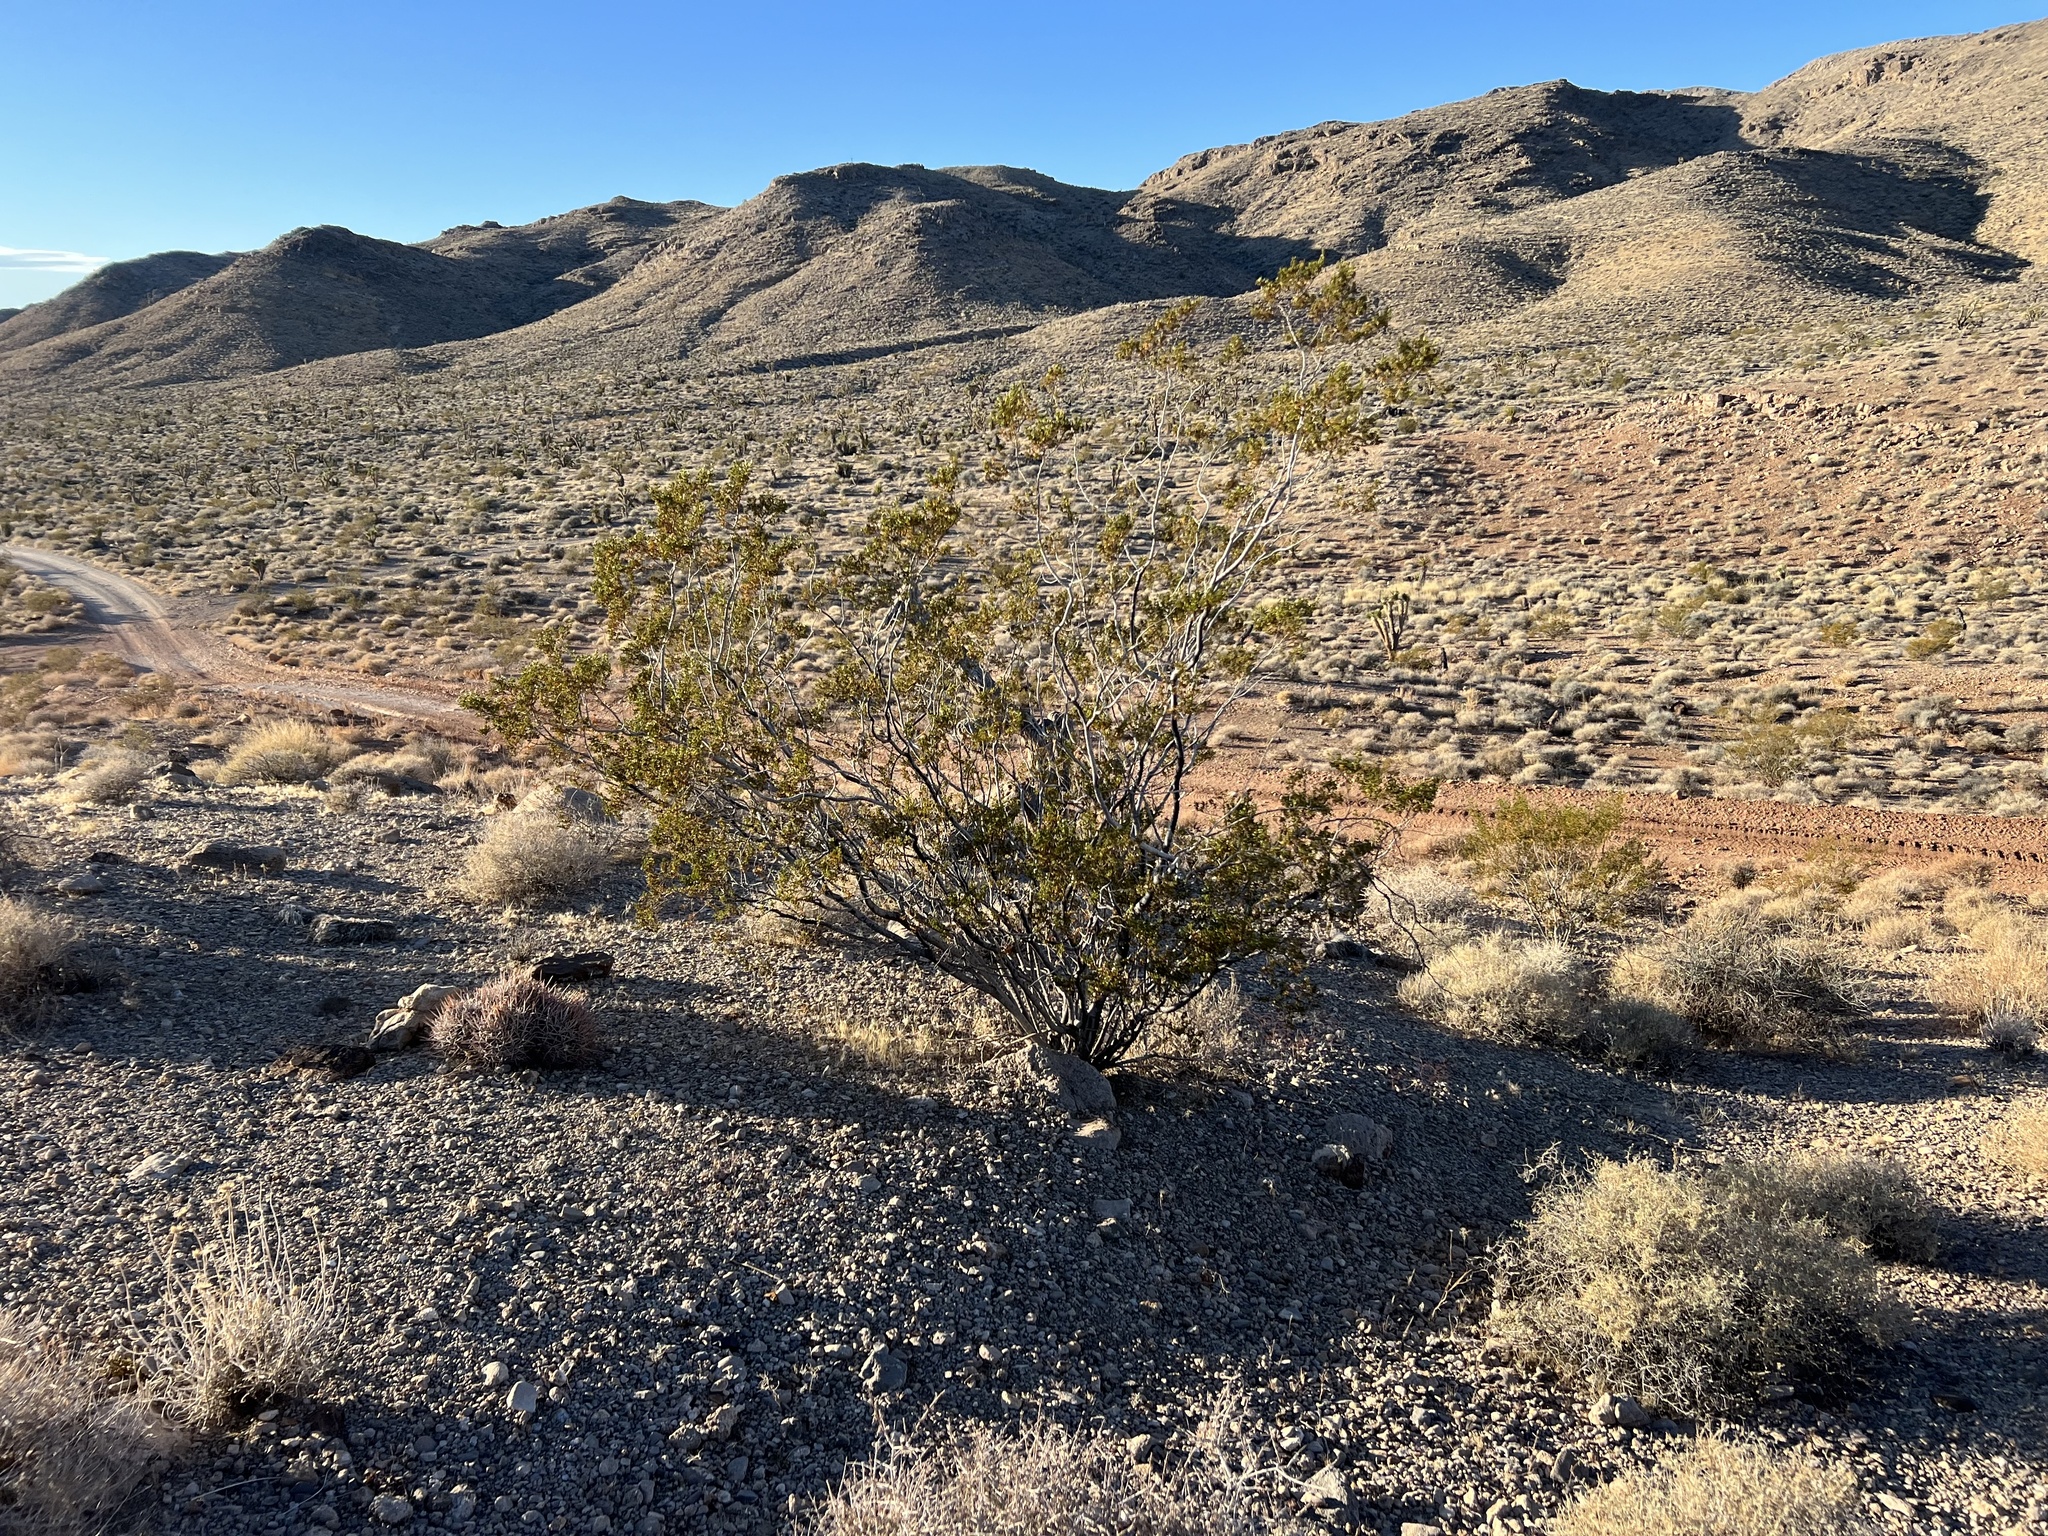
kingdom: Plantae
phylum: Tracheophyta
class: Magnoliopsida
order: Zygophyllales
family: Zygophyllaceae
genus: Larrea
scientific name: Larrea tridentata
